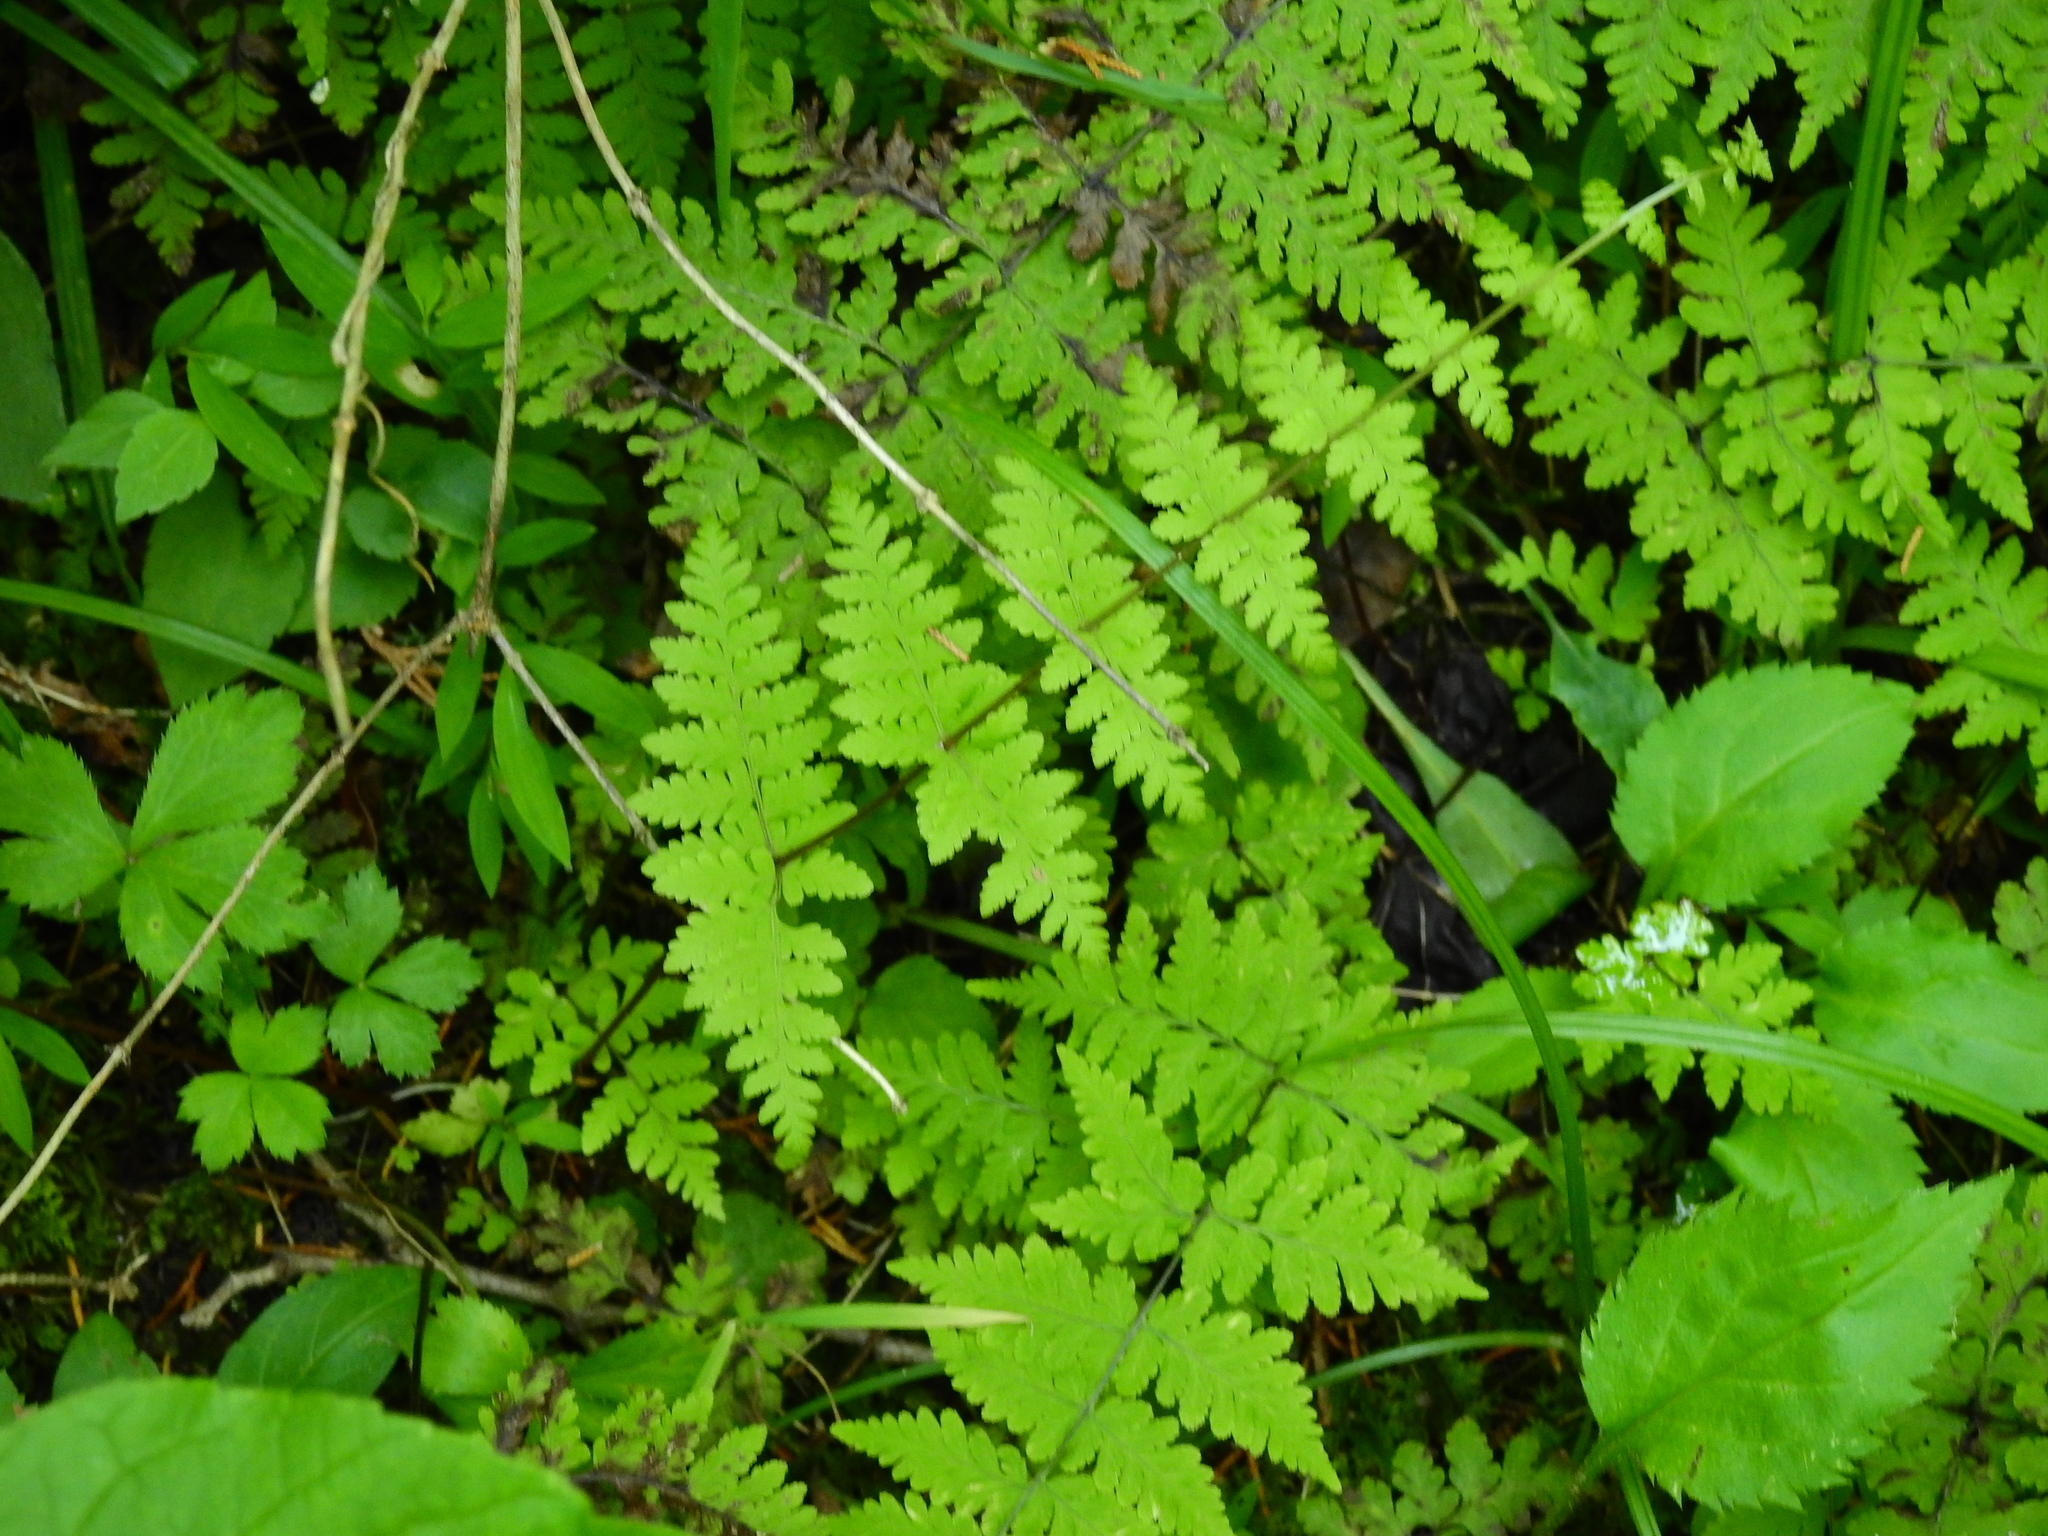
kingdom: Plantae
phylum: Tracheophyta
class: Polypodiopsida
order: Polypodiales
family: Cystopteridaceae
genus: Cystopteris
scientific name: Cystopteris bulbifera
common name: Bulblet bladder fern
